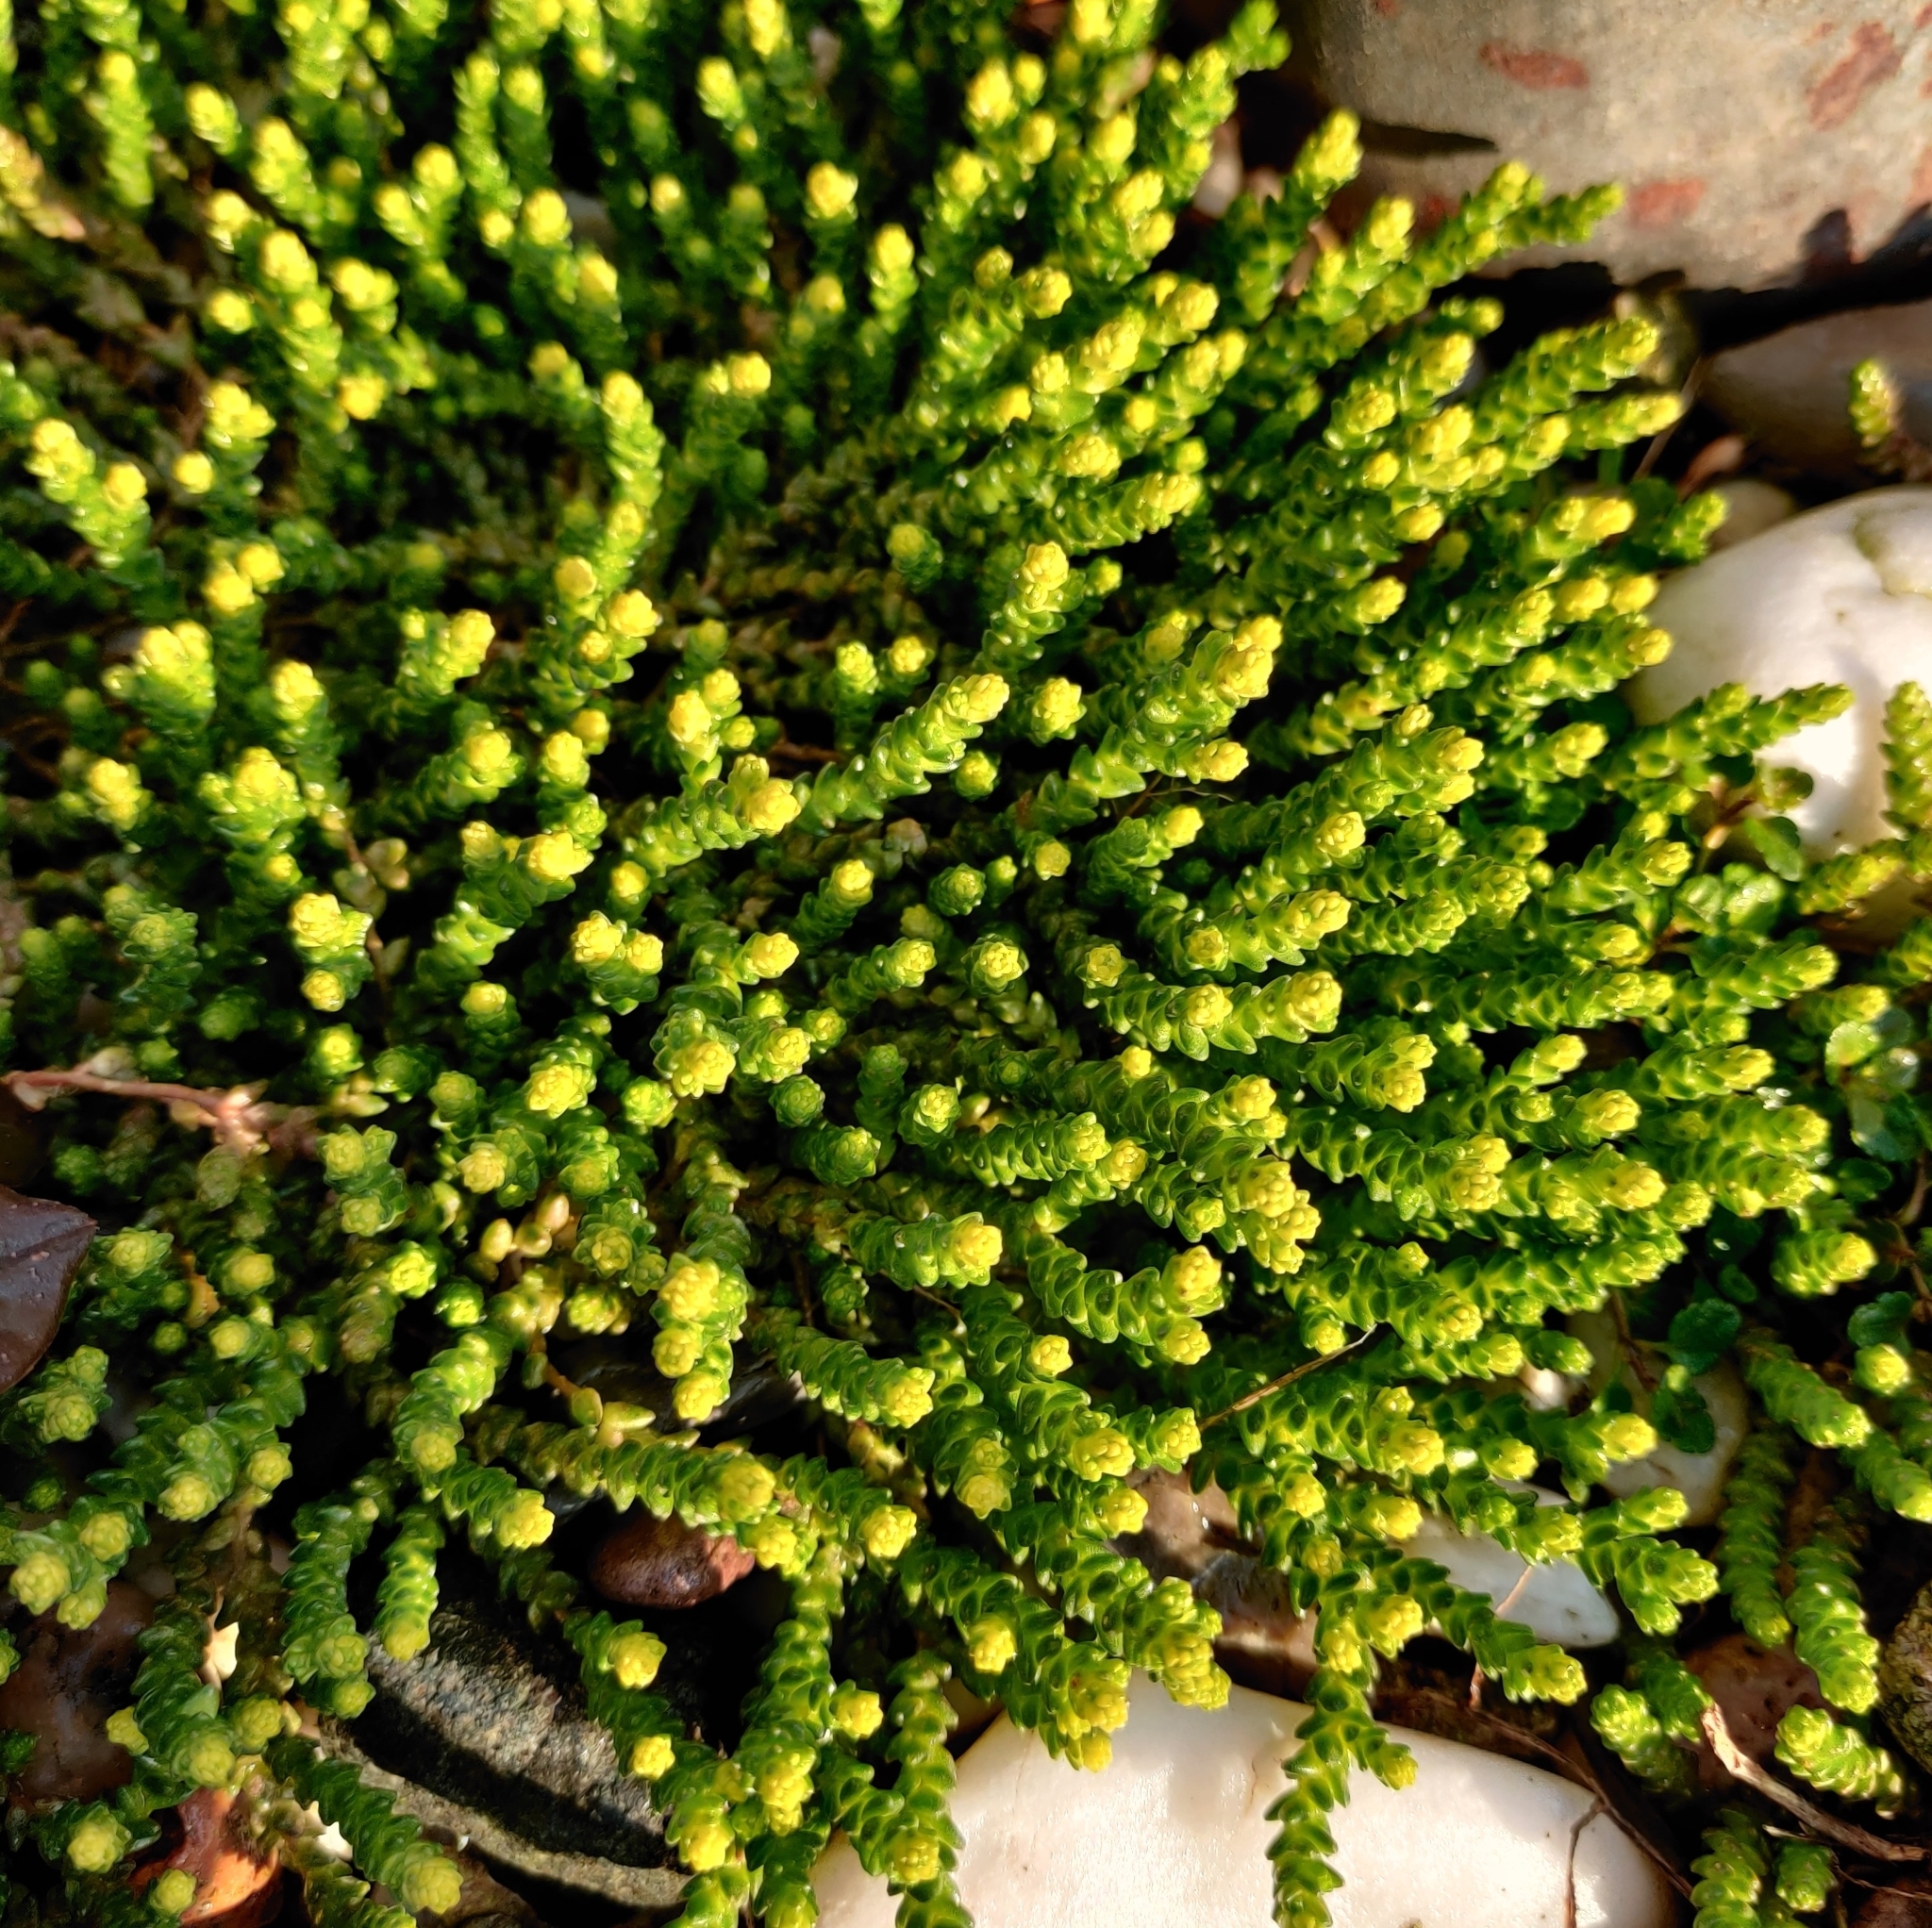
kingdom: Plantae
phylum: Tracheophyta
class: Magnoliopsida
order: Saxifragales
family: Crassulaceae
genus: Sedum
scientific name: Sedum acre
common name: Biting stonecrop
